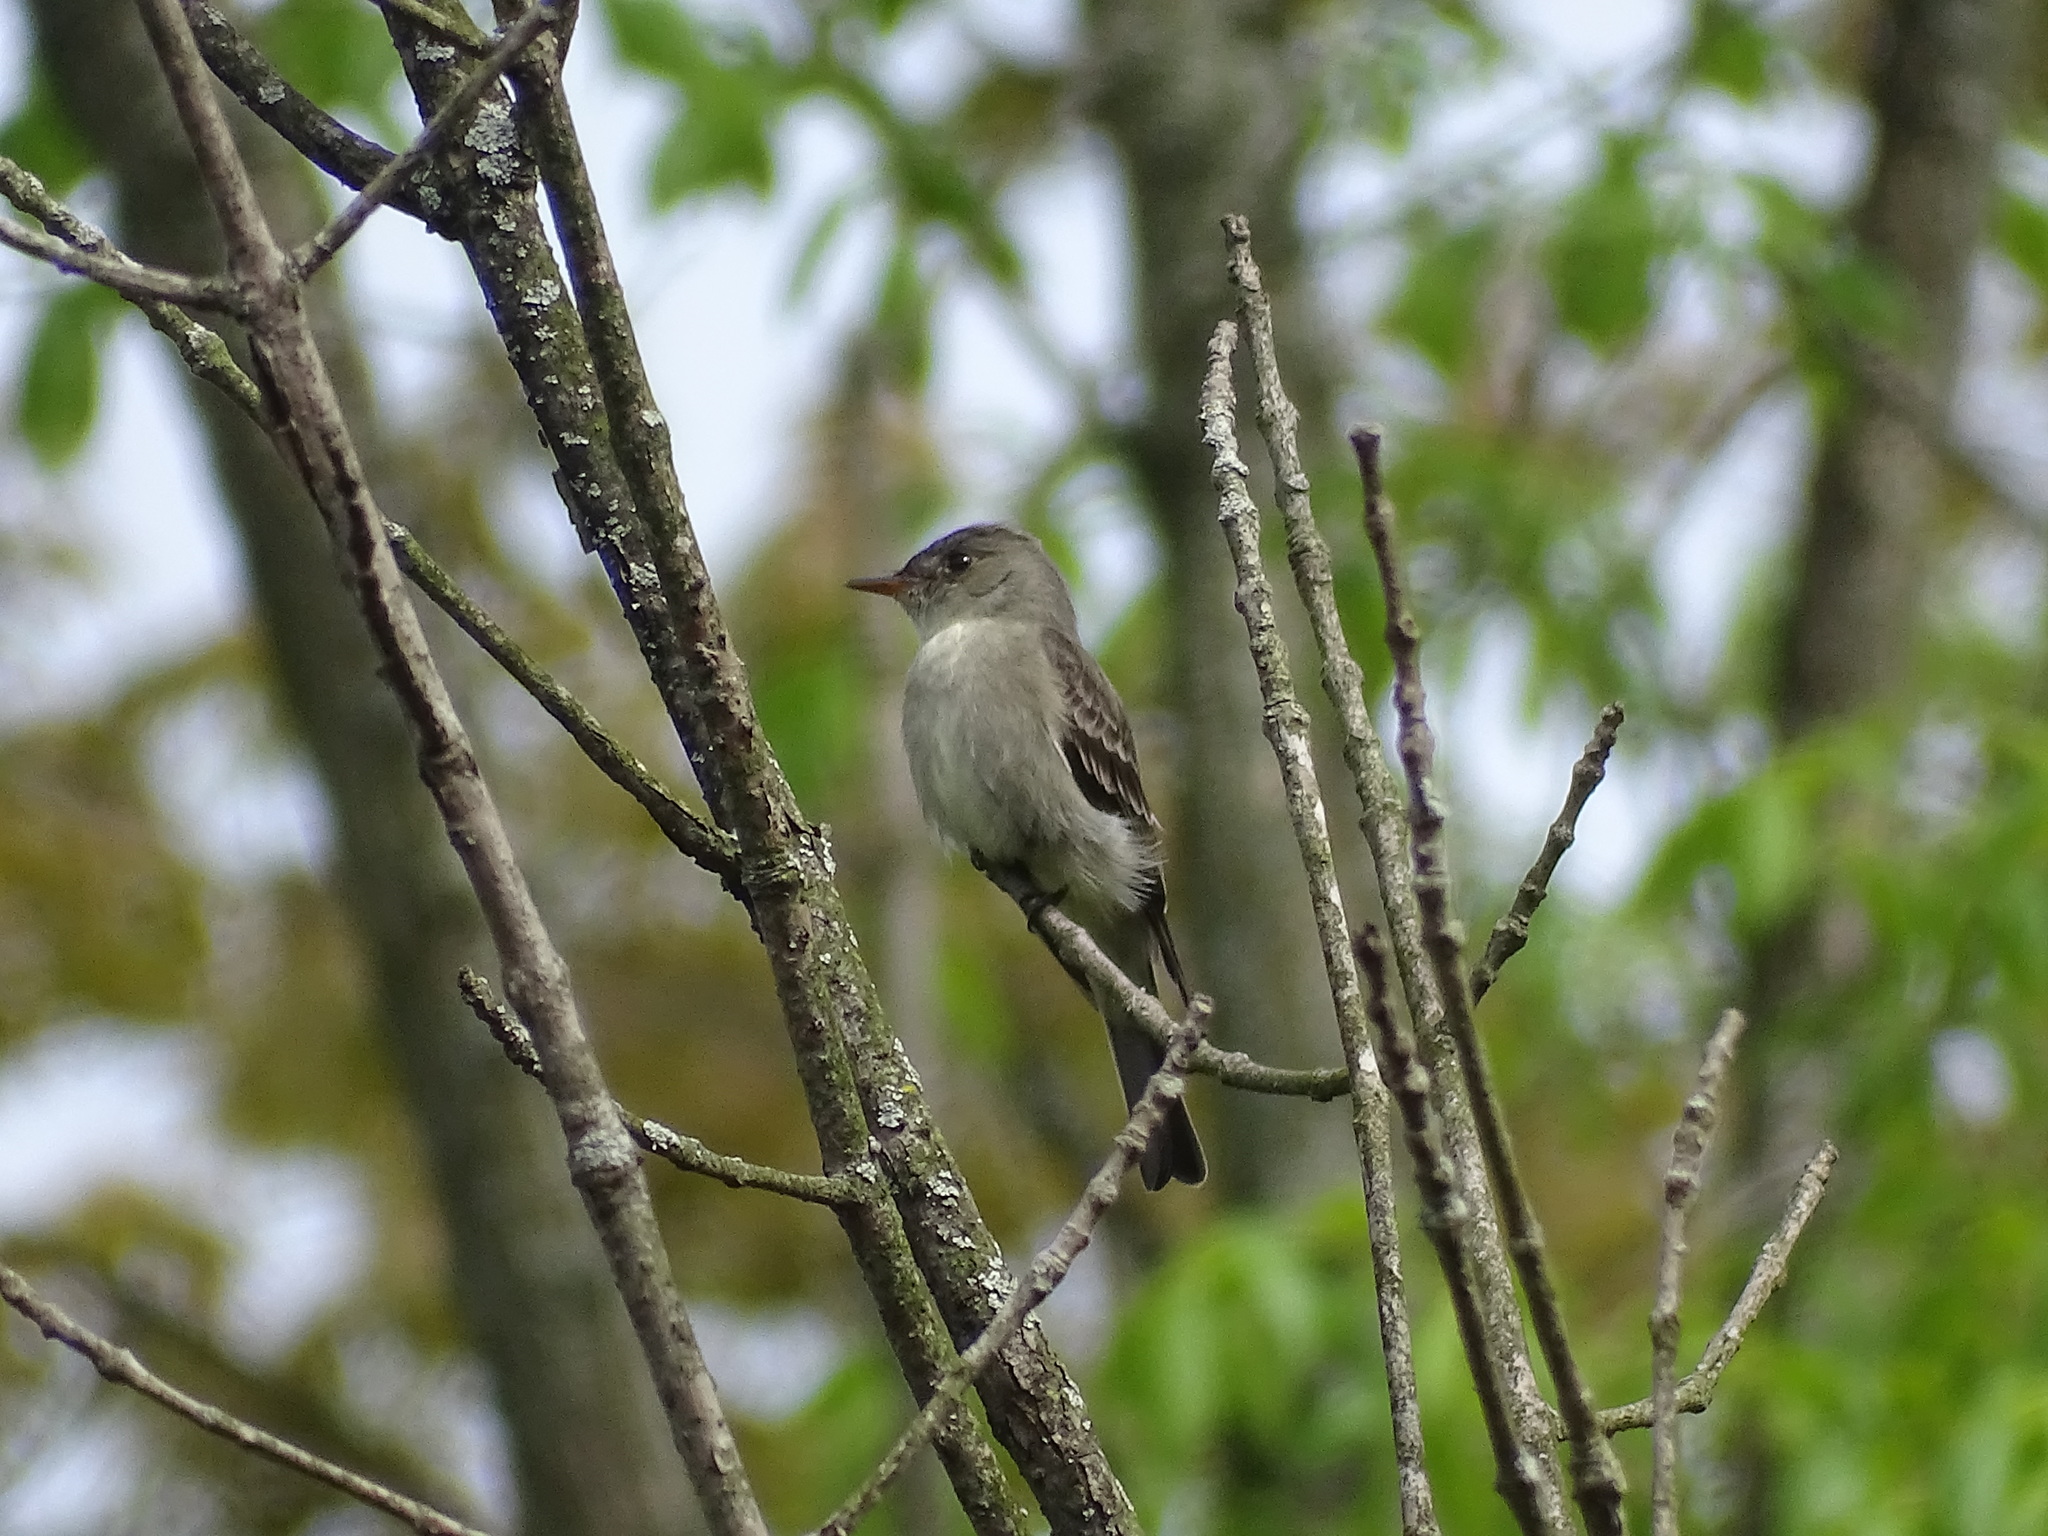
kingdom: Animalia
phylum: Chordata
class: Aves
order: Passeriformes
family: Tyrannidae
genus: Contopus
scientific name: Contopus virens
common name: Eastern wood-pewee
